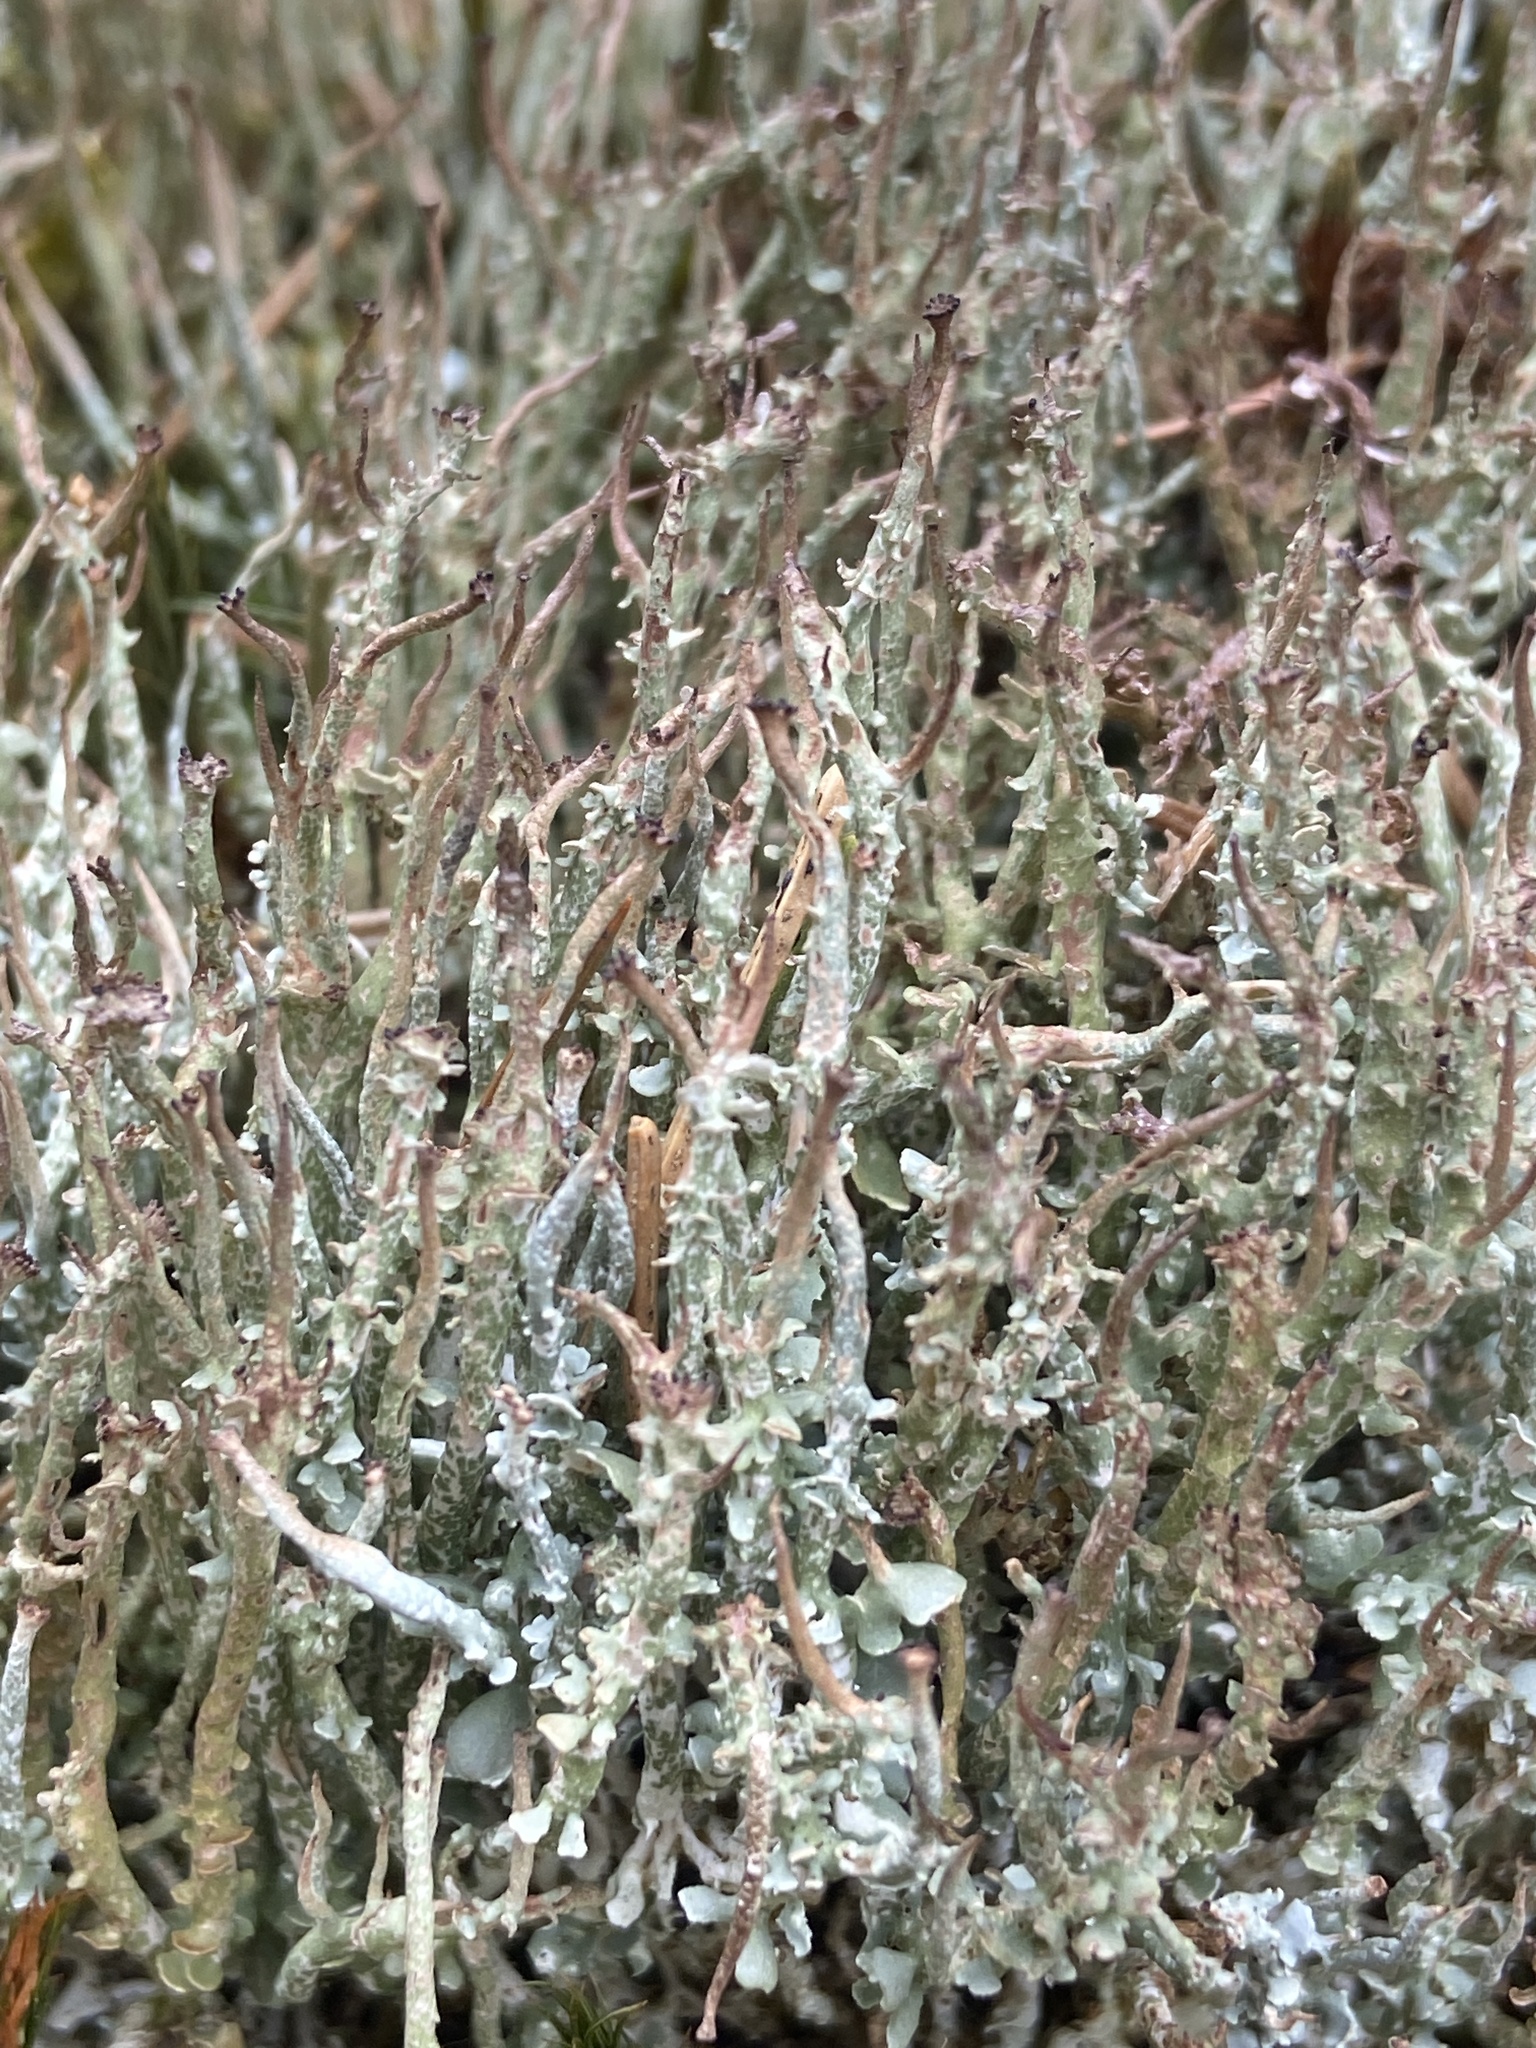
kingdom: Fungi
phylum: Ascomycota
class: Lecanoromycetes
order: Lecanorales
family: Cladoniaceae
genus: Cladonia
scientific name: Cladonia furcata
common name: Many-forked cladonia
